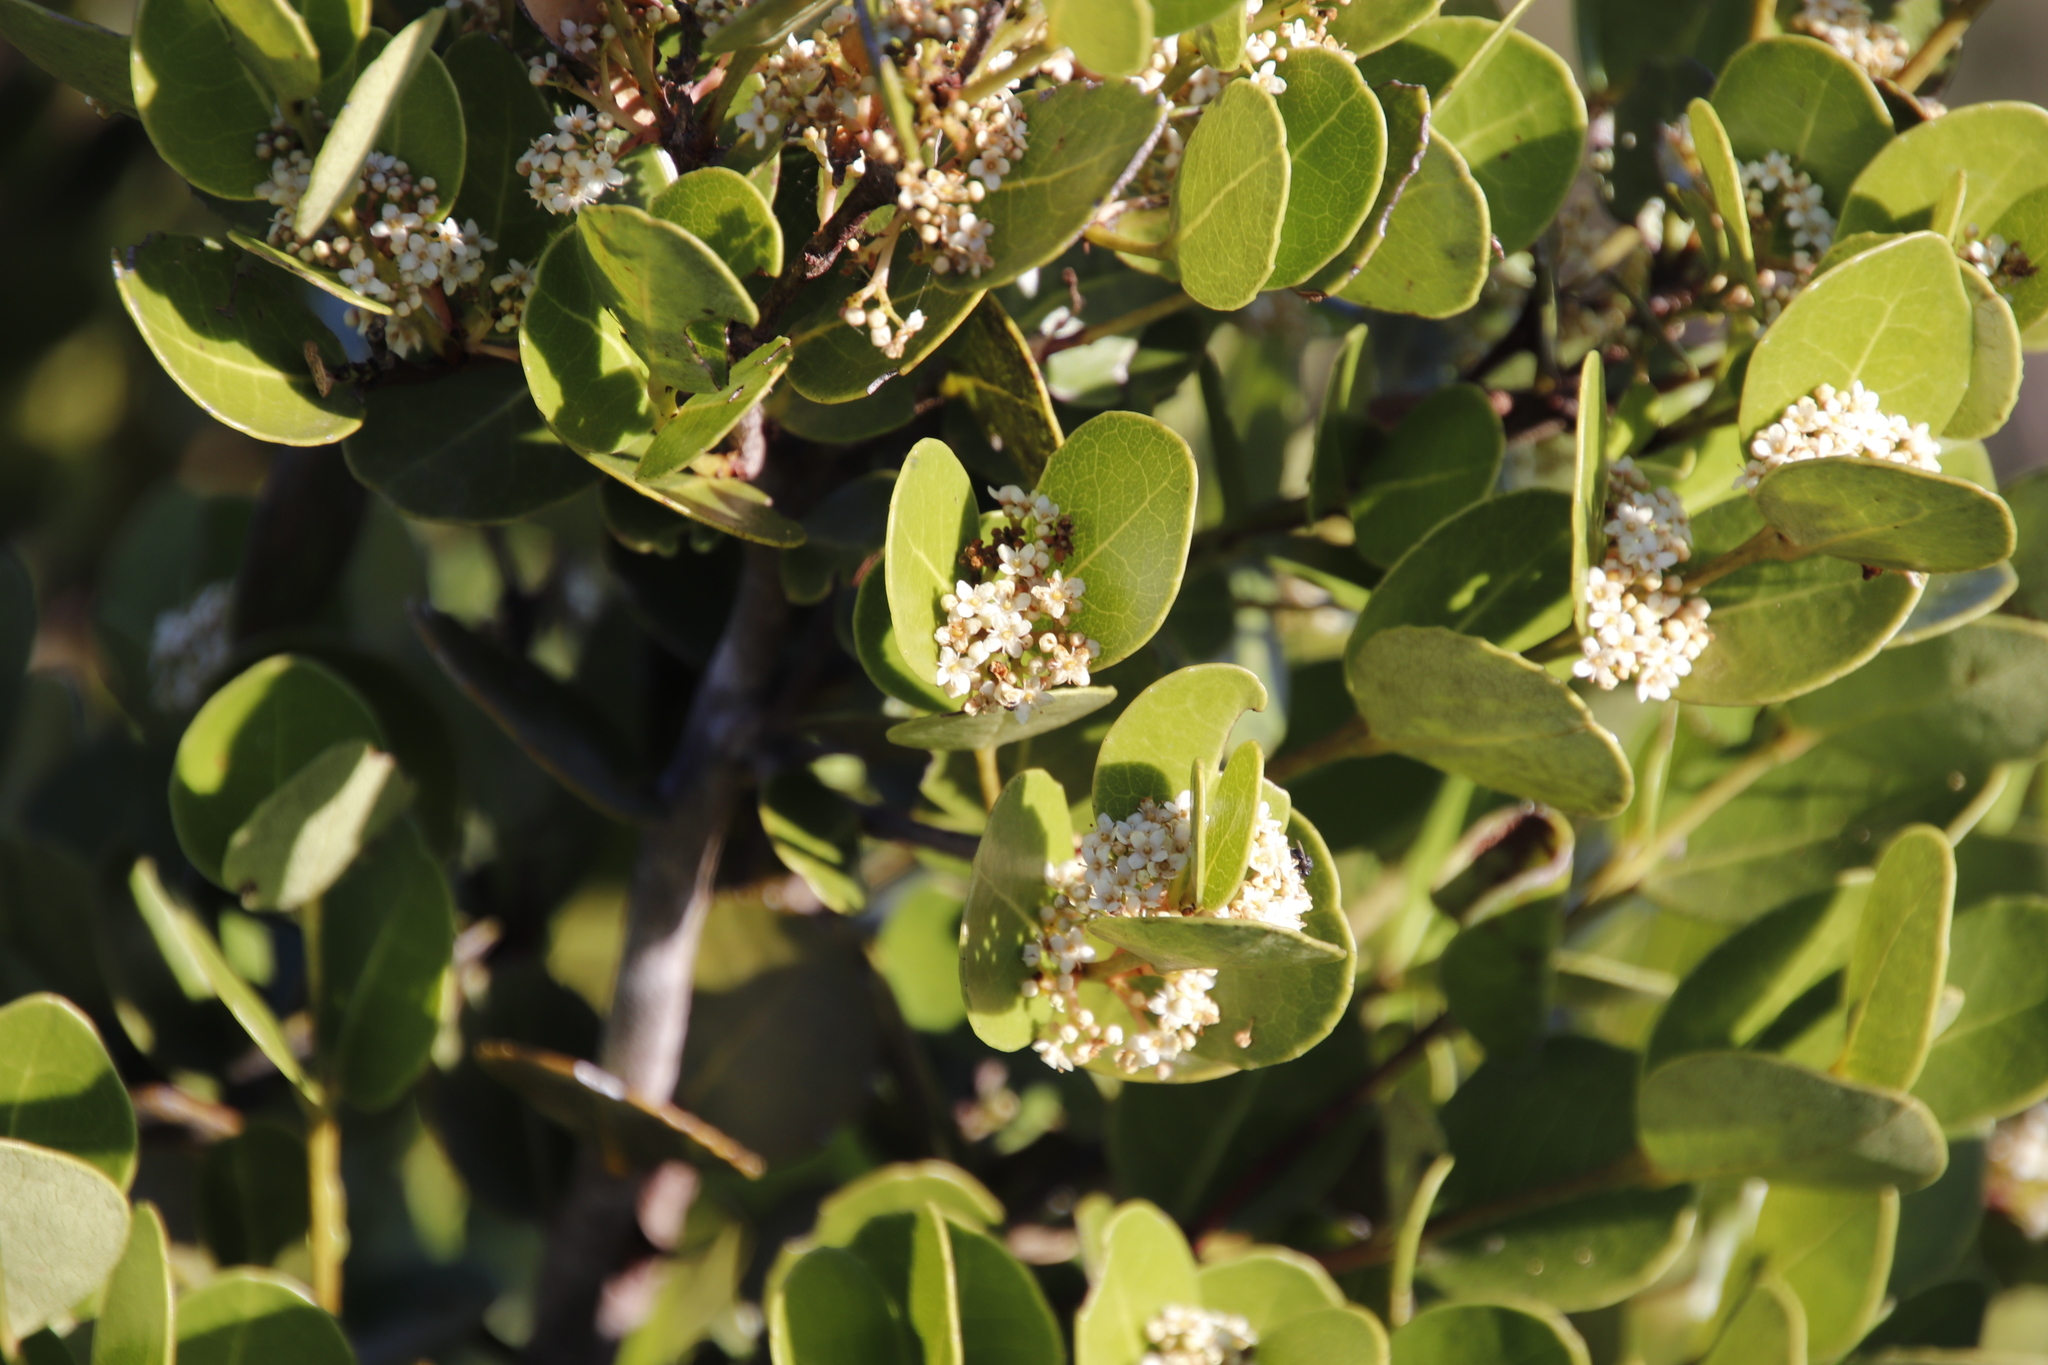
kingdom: Plantae
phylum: Tracheophyta
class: Magnoliopsida
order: Celastrales
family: Celastraceae
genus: Cassine
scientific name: Cassine peragua
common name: Cape saffron
